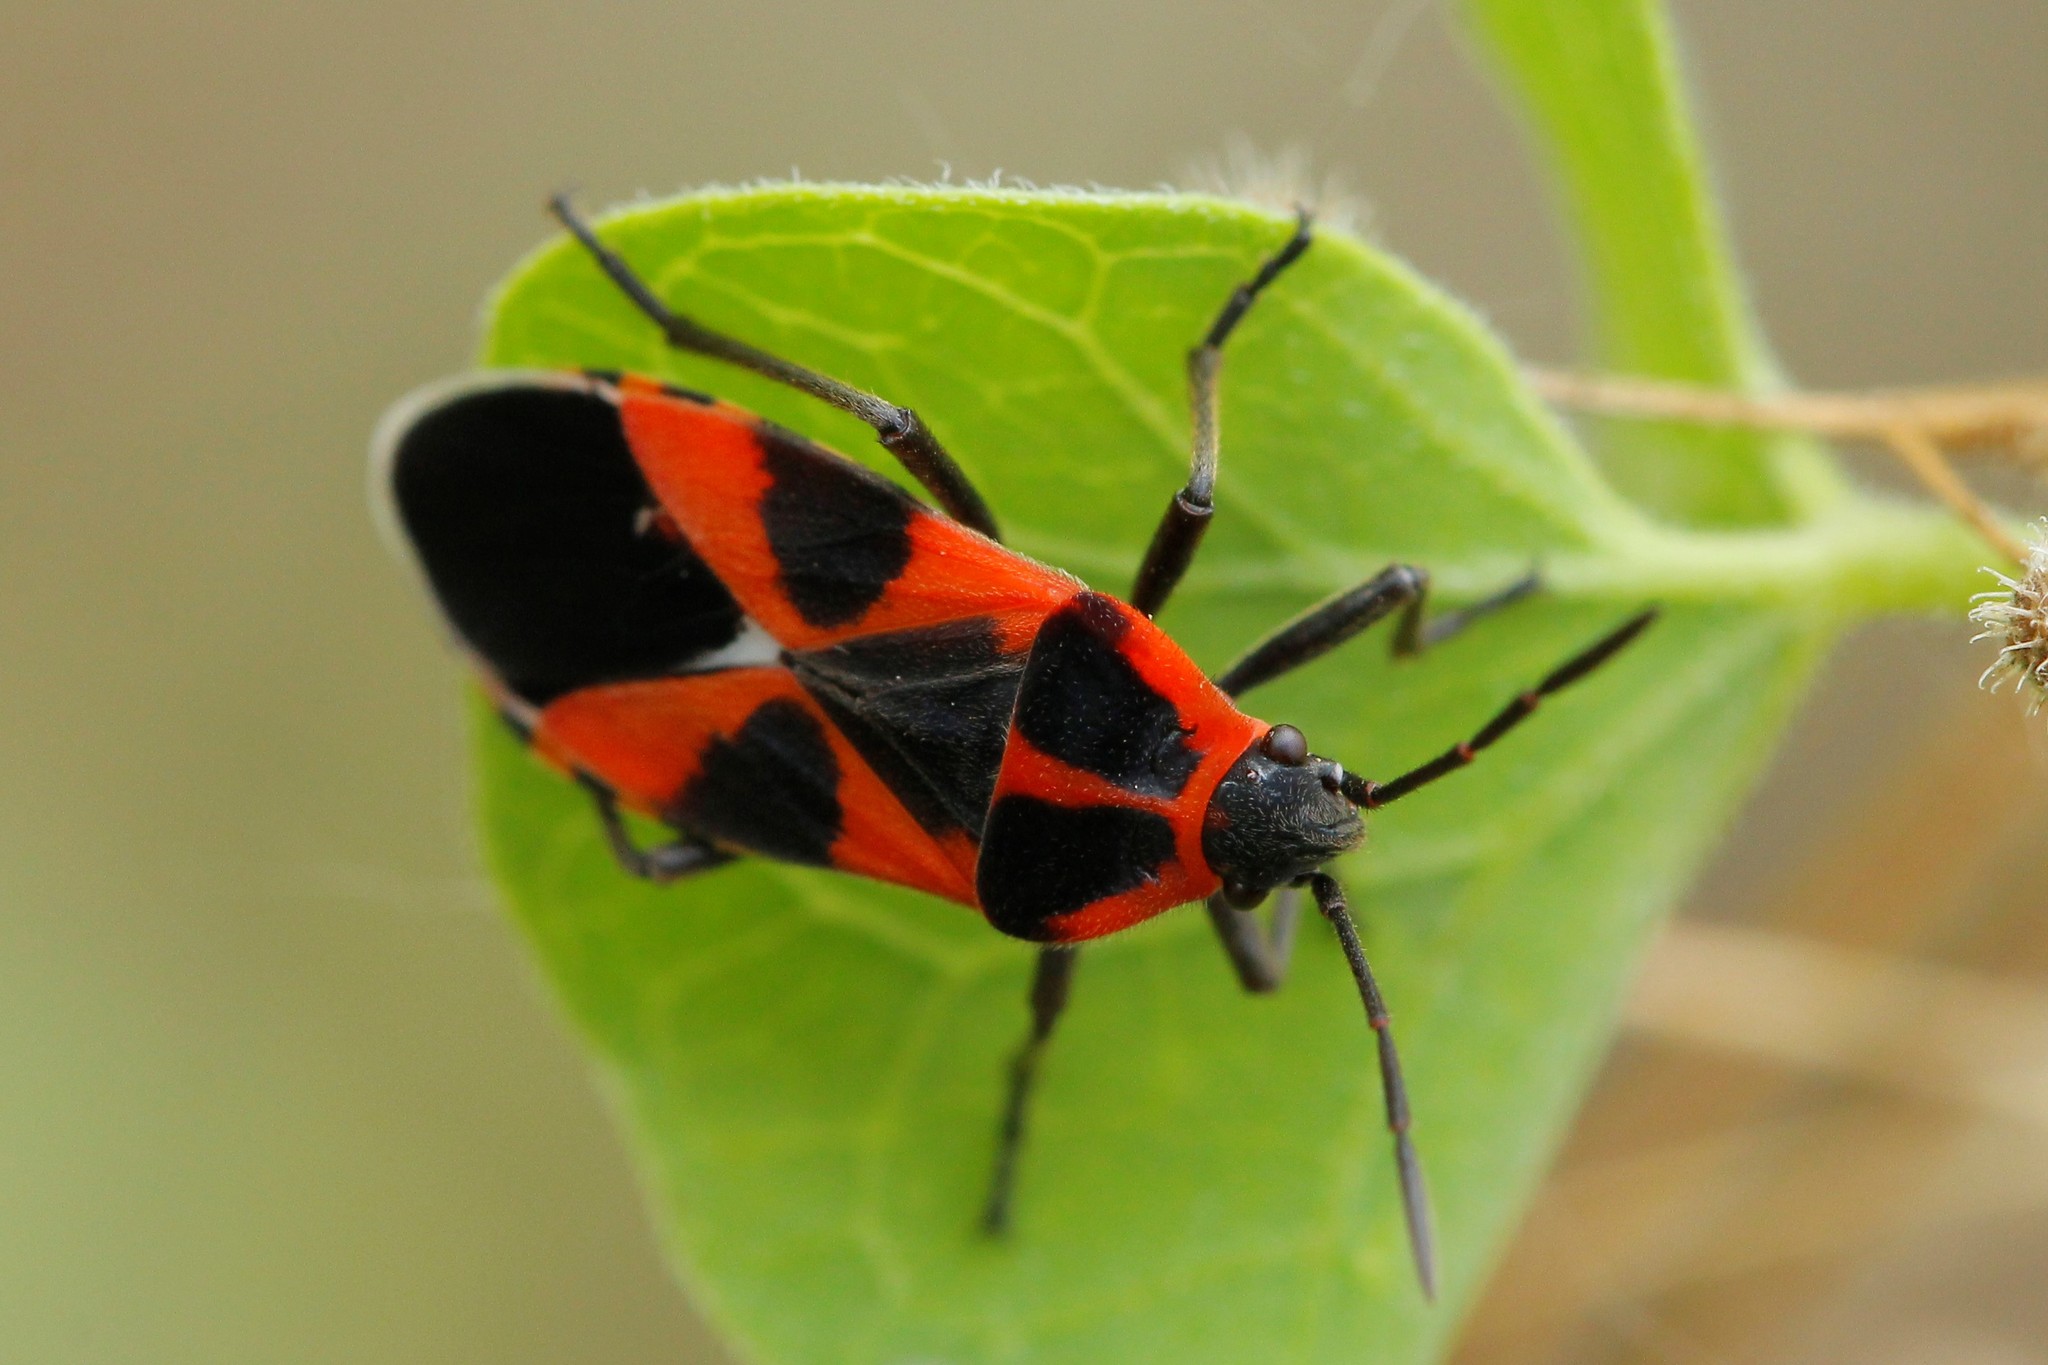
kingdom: Animalia
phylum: Arthropoda
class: Insecta
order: Hemiptera
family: Lygaeidae
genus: Tropidothorax
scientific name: Tropidothorax leucopterus
